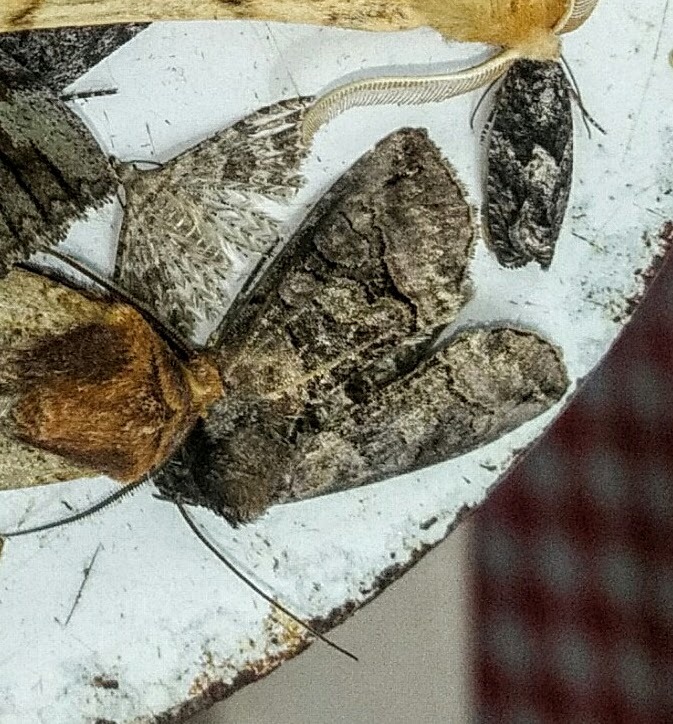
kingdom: Animalia
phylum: Arthropoda
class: Insecta
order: Lepidoptera
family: Noctuidae
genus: Abrostola
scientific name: Abrostola urentis
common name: Spectacled nettle moth
